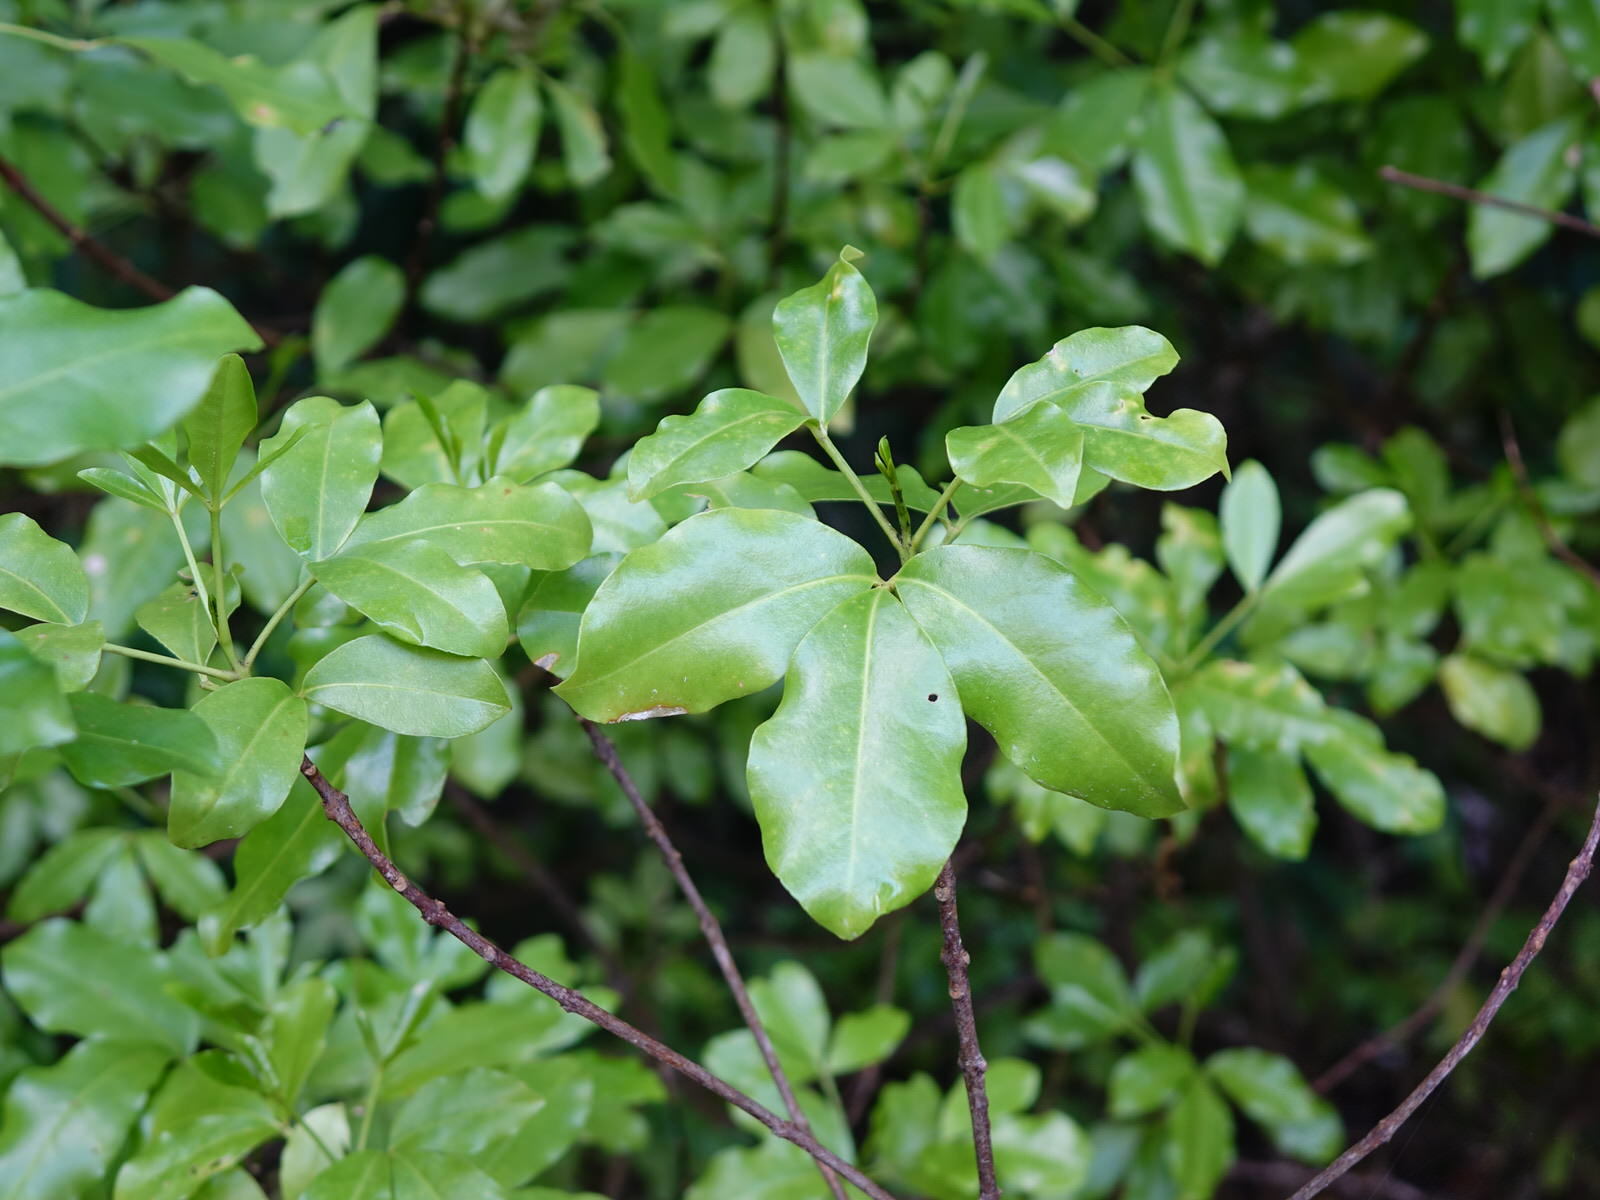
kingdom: Plantae
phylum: Tracheophyta
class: Magnoliopsida
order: Sapindales
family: Rutaceae
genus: Melicope
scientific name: Melicope ternata
